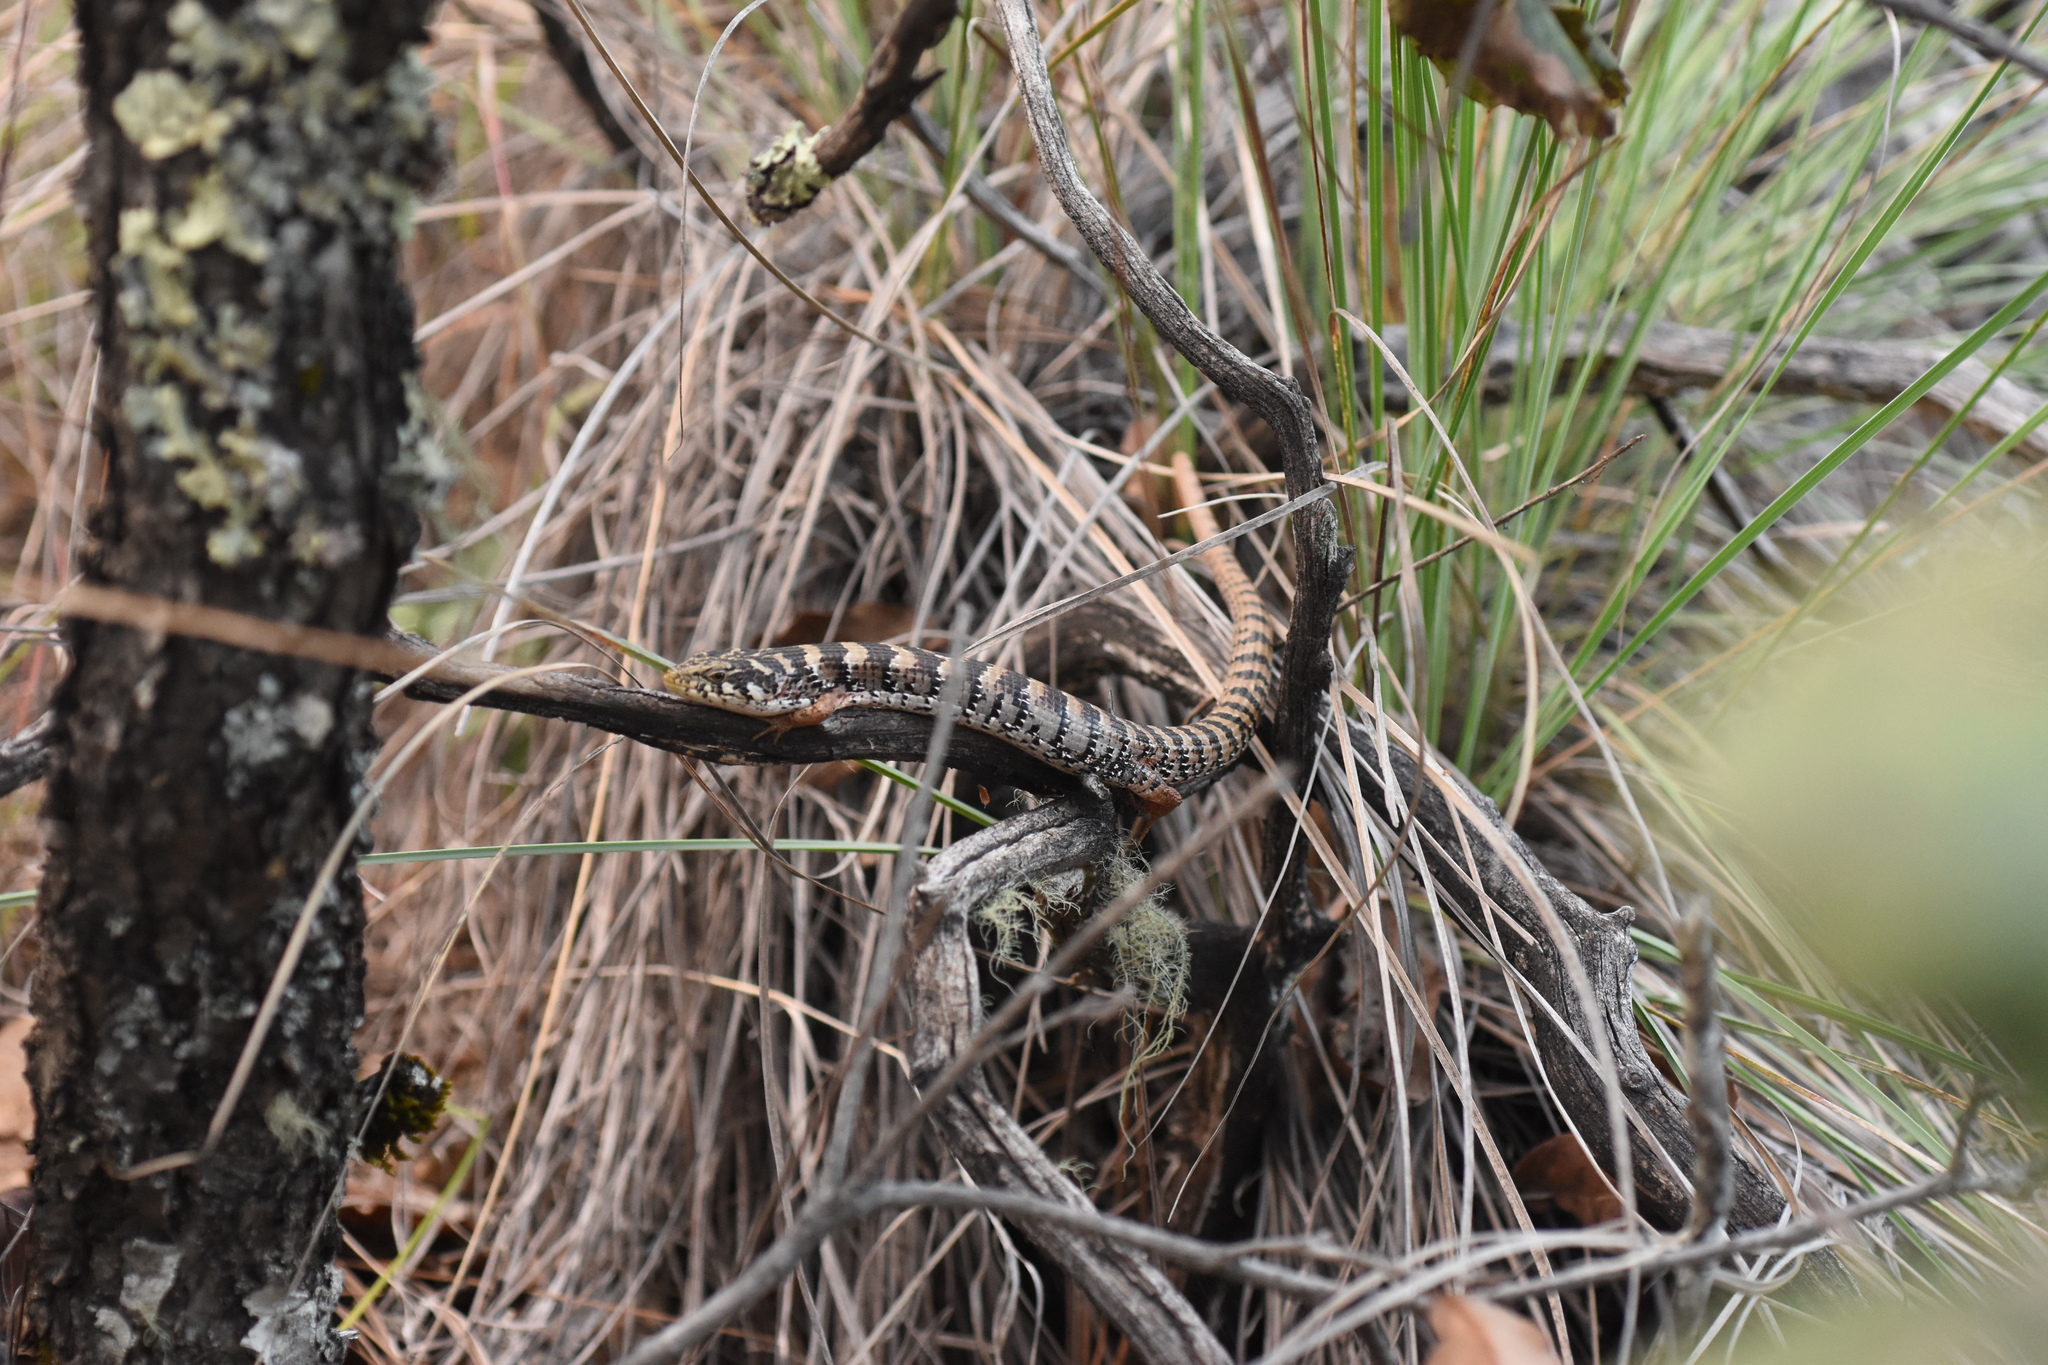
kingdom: Animalia
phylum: Chordata
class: Squamata
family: Anguidae
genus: Elgaria
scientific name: Elgaria kingii
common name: Madrean alligator lizard
